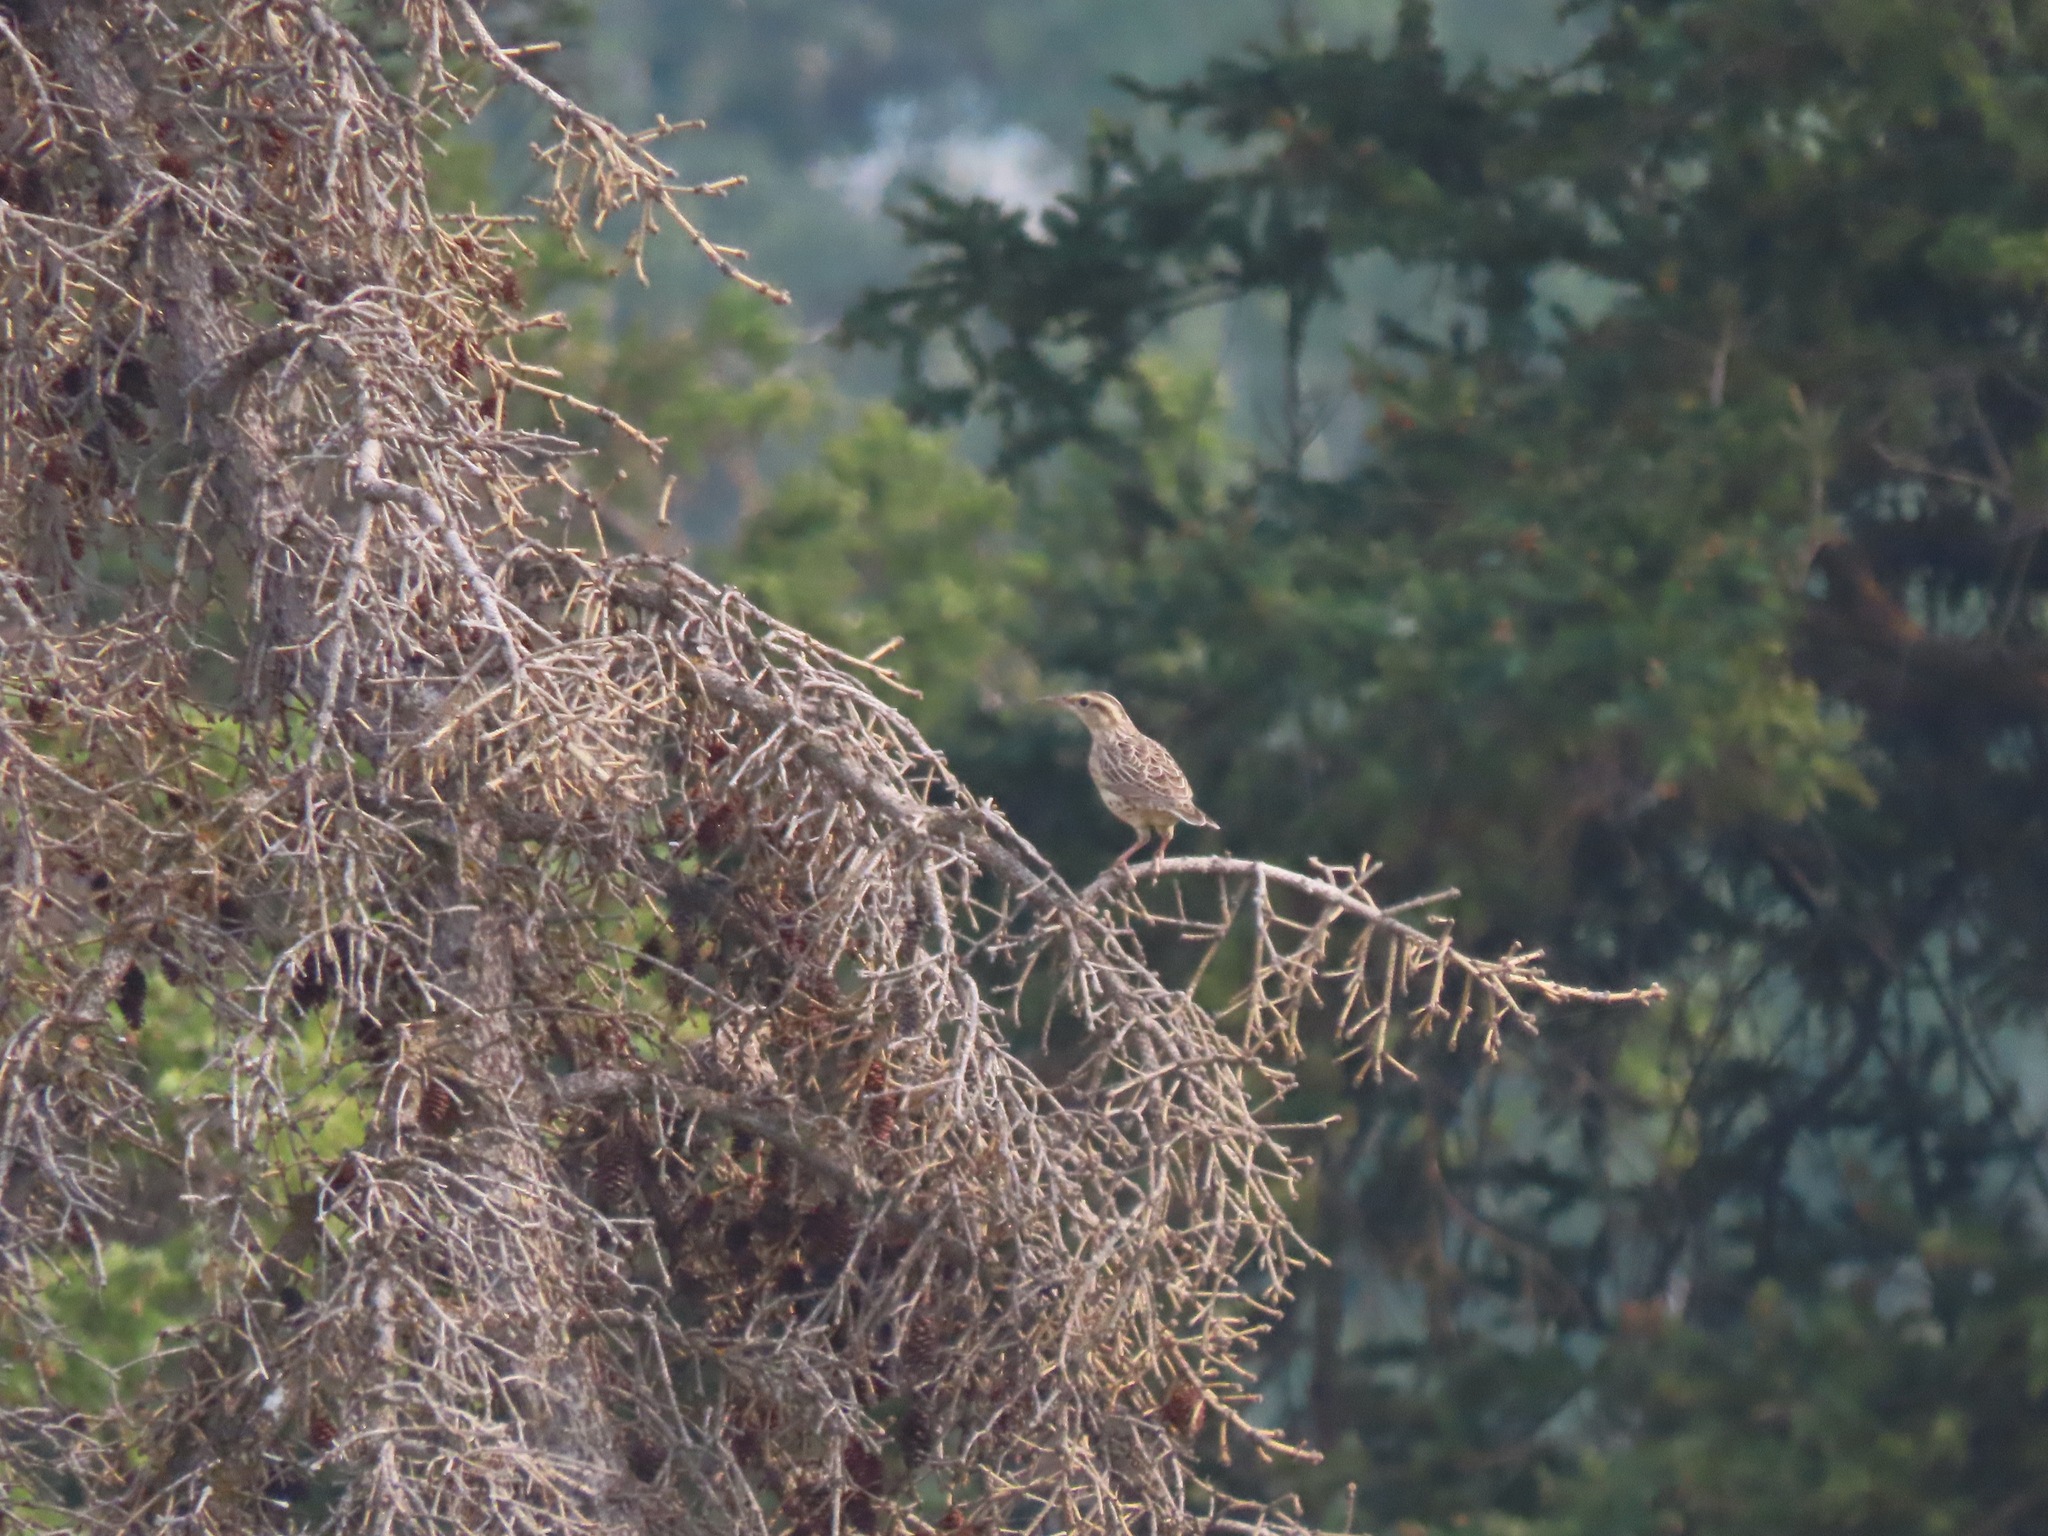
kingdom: Animalia
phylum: Chordata
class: Aves
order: Passeriformes
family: Icteridae
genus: Sturnella
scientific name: Sturnella neglecta
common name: Western meadowlark
